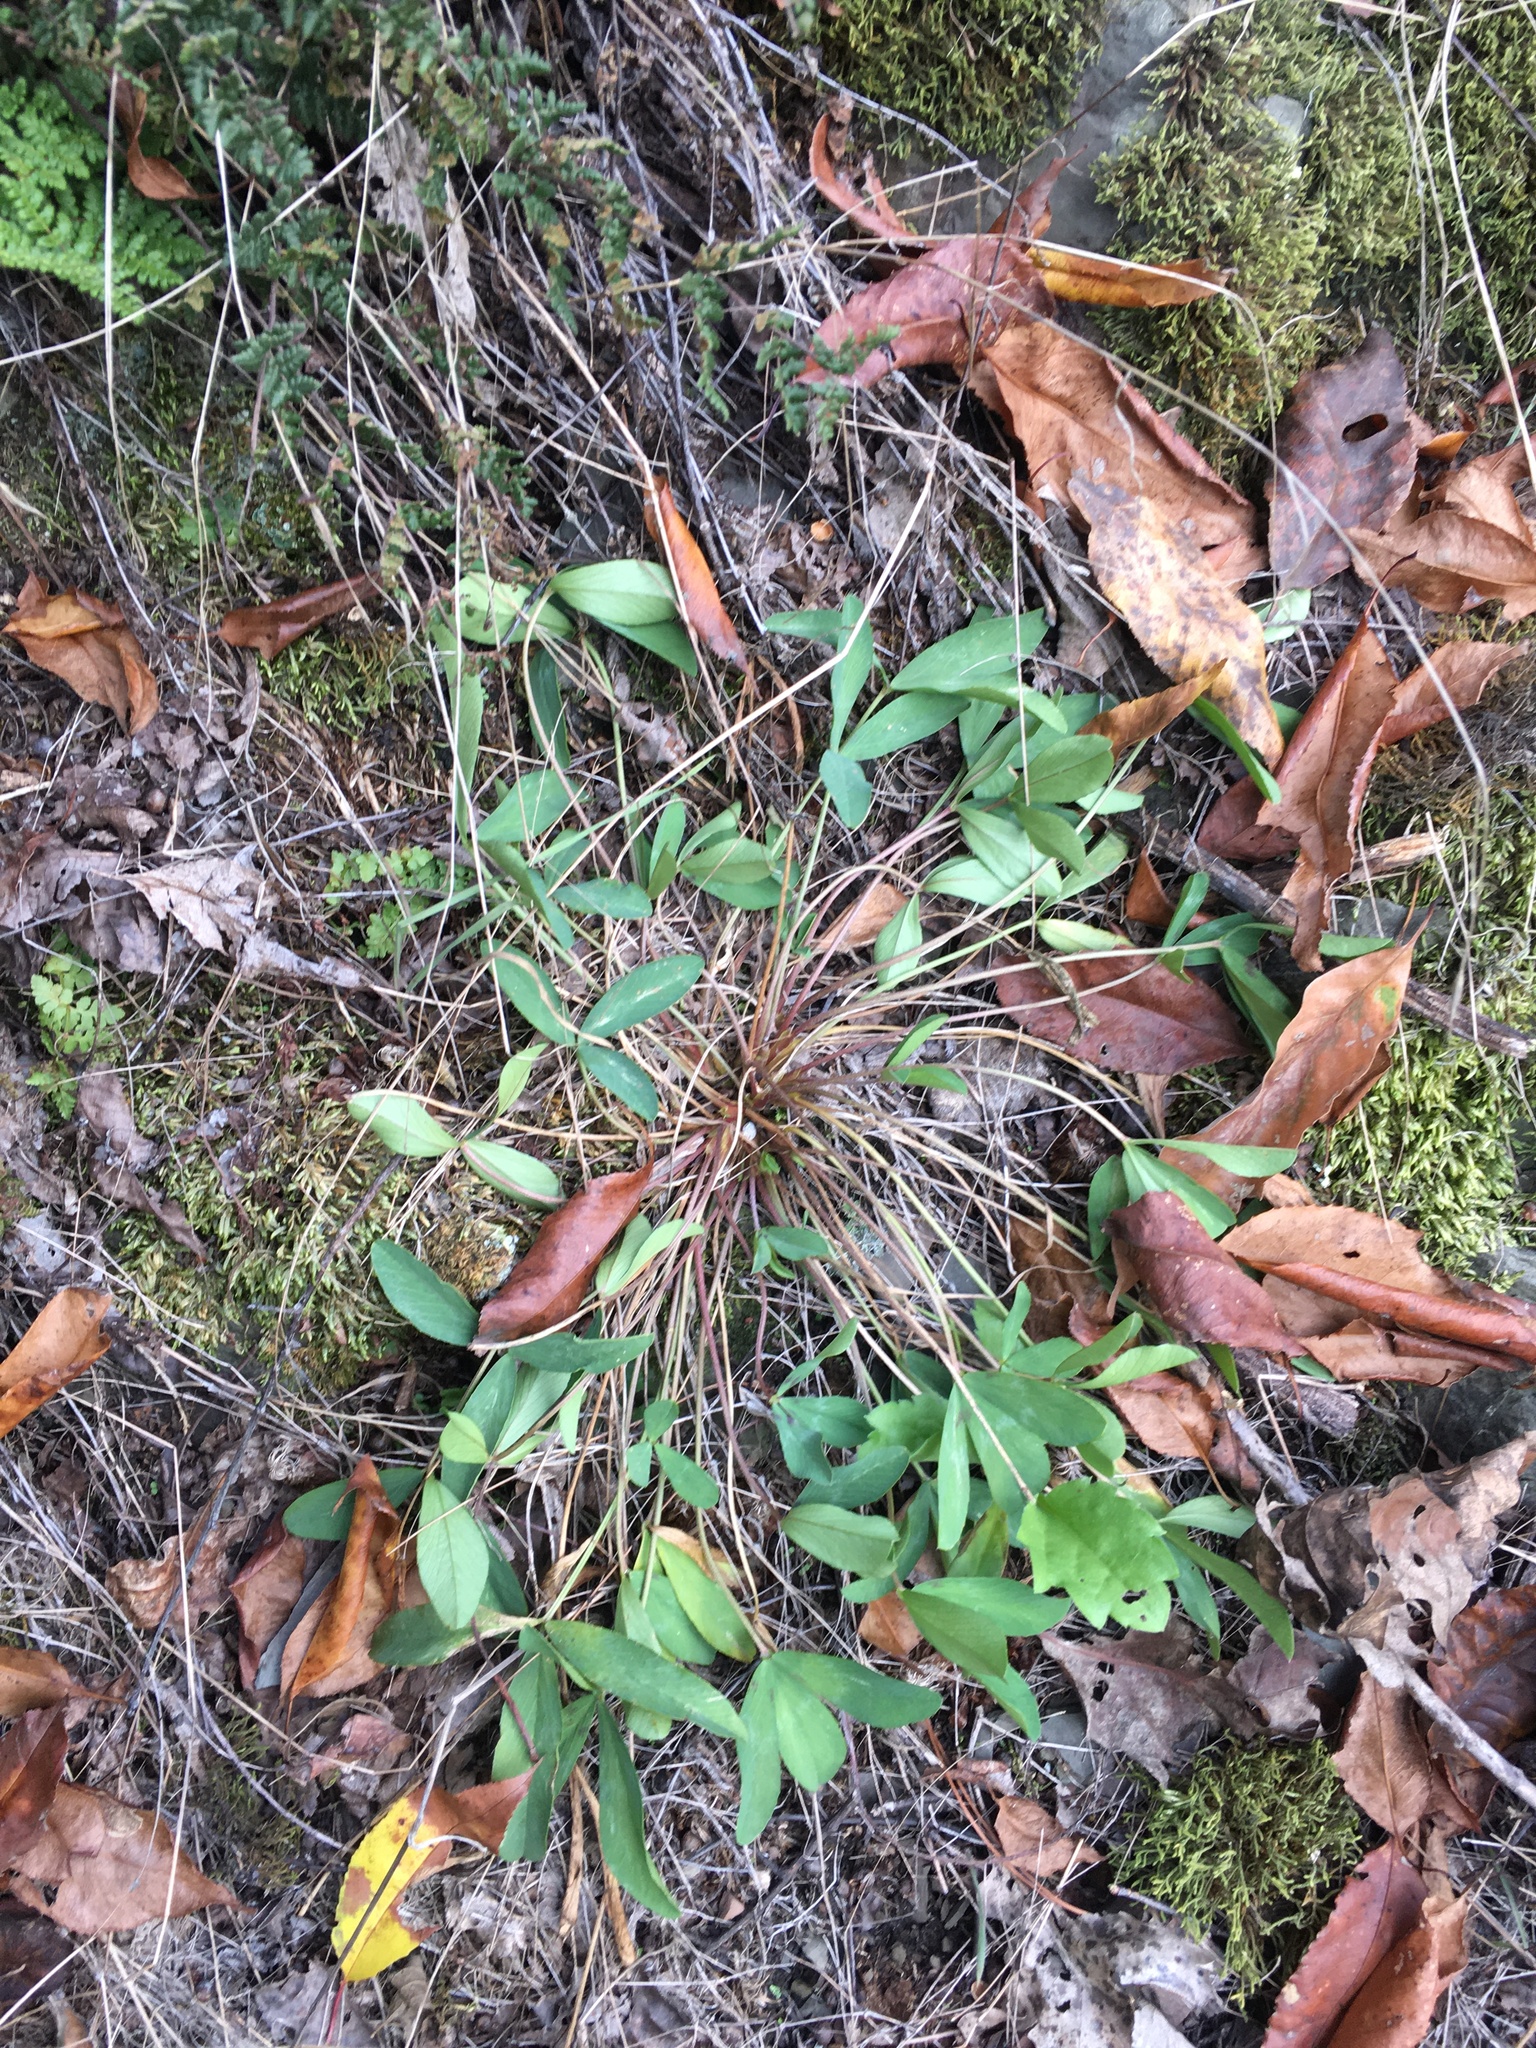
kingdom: Plantae
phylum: Tracheophyta
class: Magnoliopsida
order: Fabales
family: Fabaceae
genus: Trifolium
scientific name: Trifolium virginicum
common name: Kate's mountain clover
